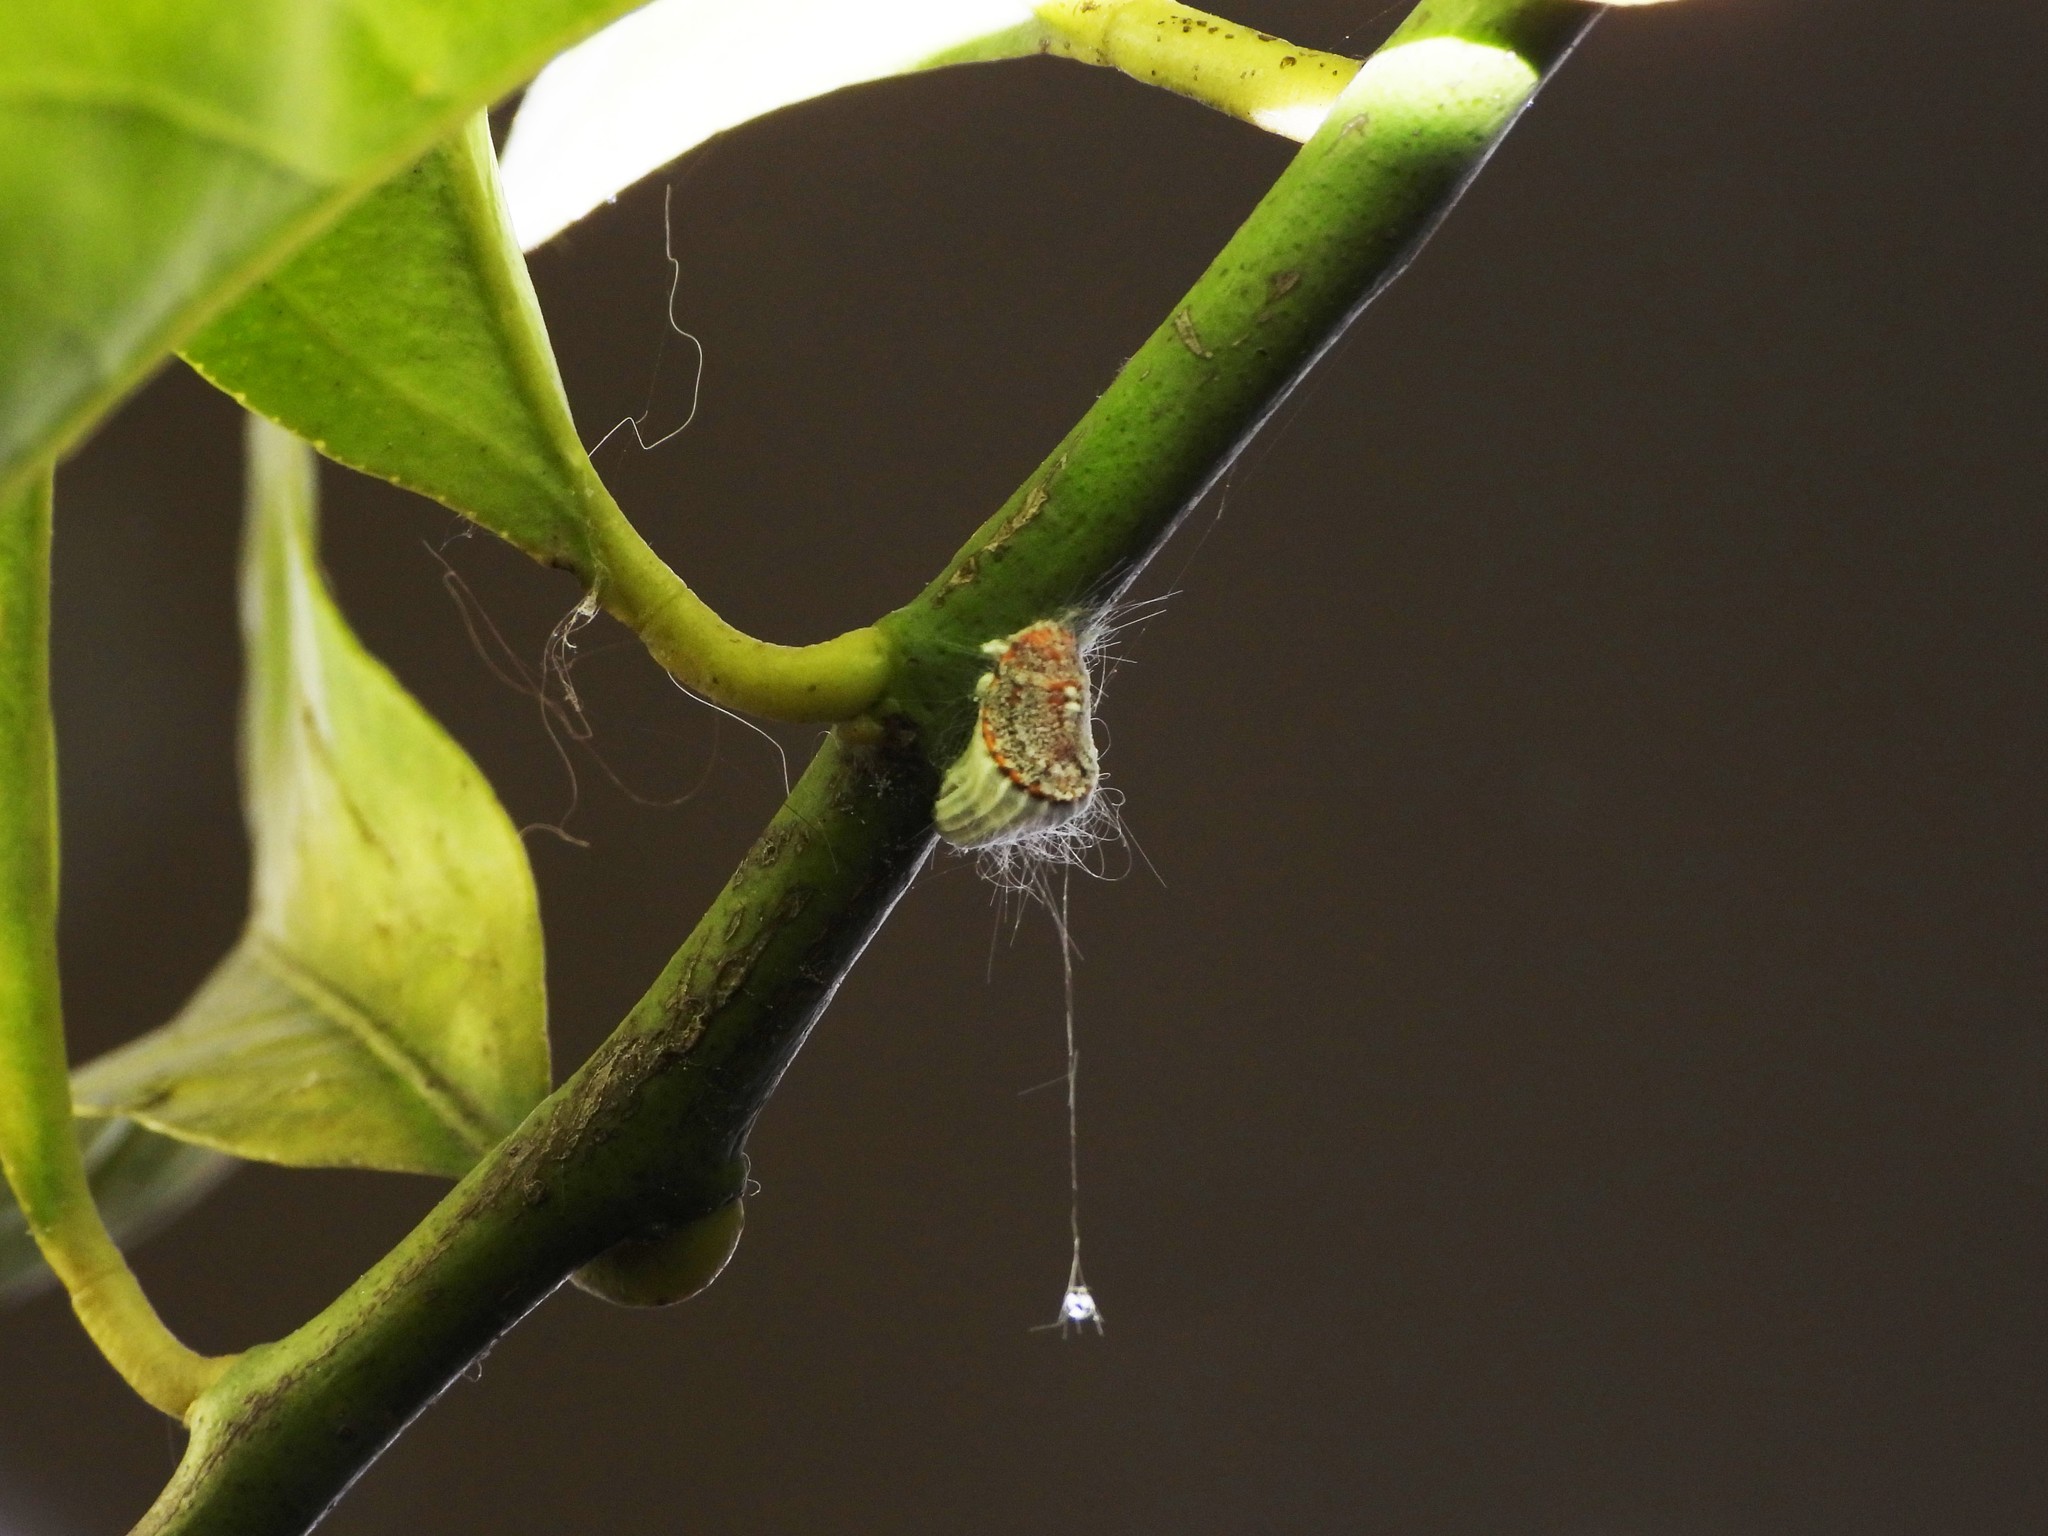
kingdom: Animalia
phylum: Arthropoda
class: Insecta
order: Hemiptera
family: Margarodidae
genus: Icerya
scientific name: Icerya purchasi
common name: Cottony cushion scale
